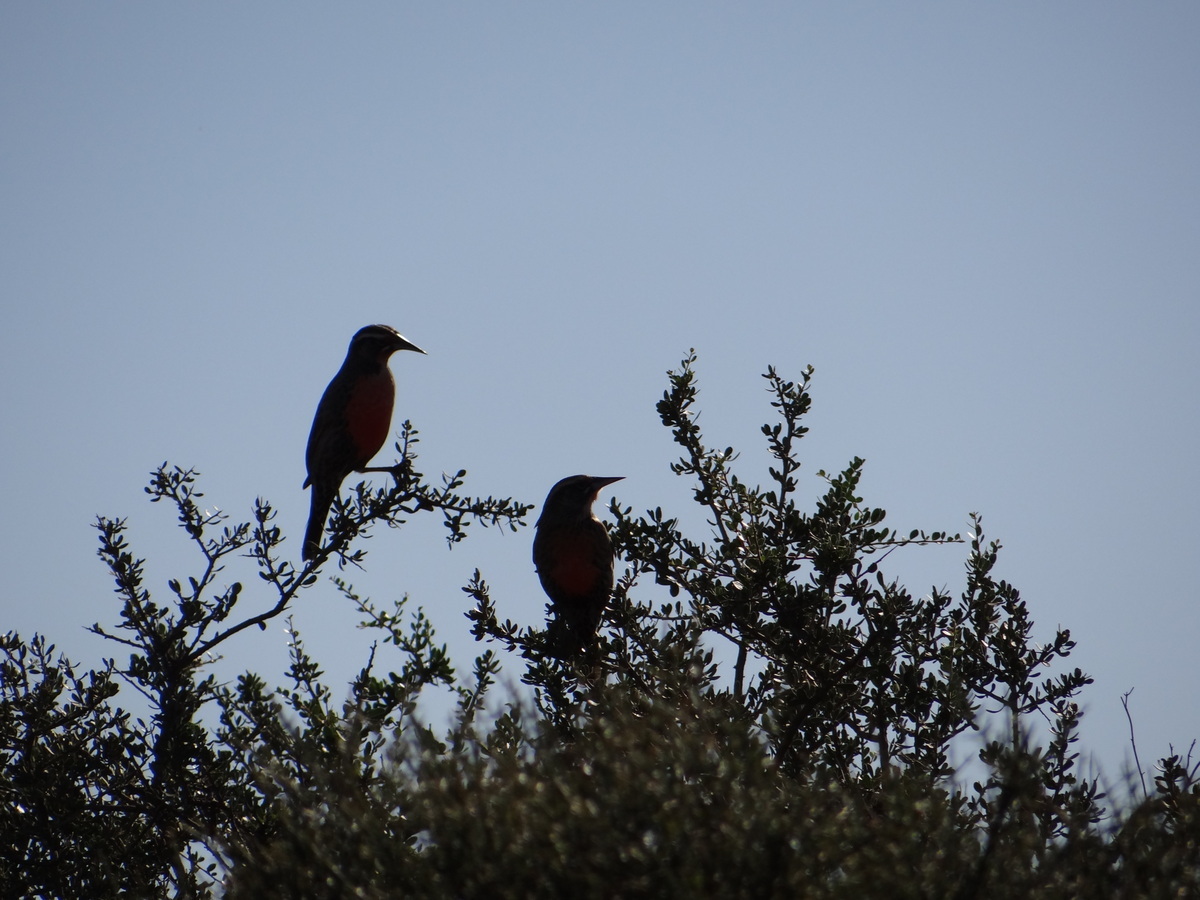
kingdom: Animalia
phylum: Chordata
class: Aves
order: Passeriformes
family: Icteridae
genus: Sturnella
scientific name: Sturnella loyca
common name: Long-tailed meadowlark
